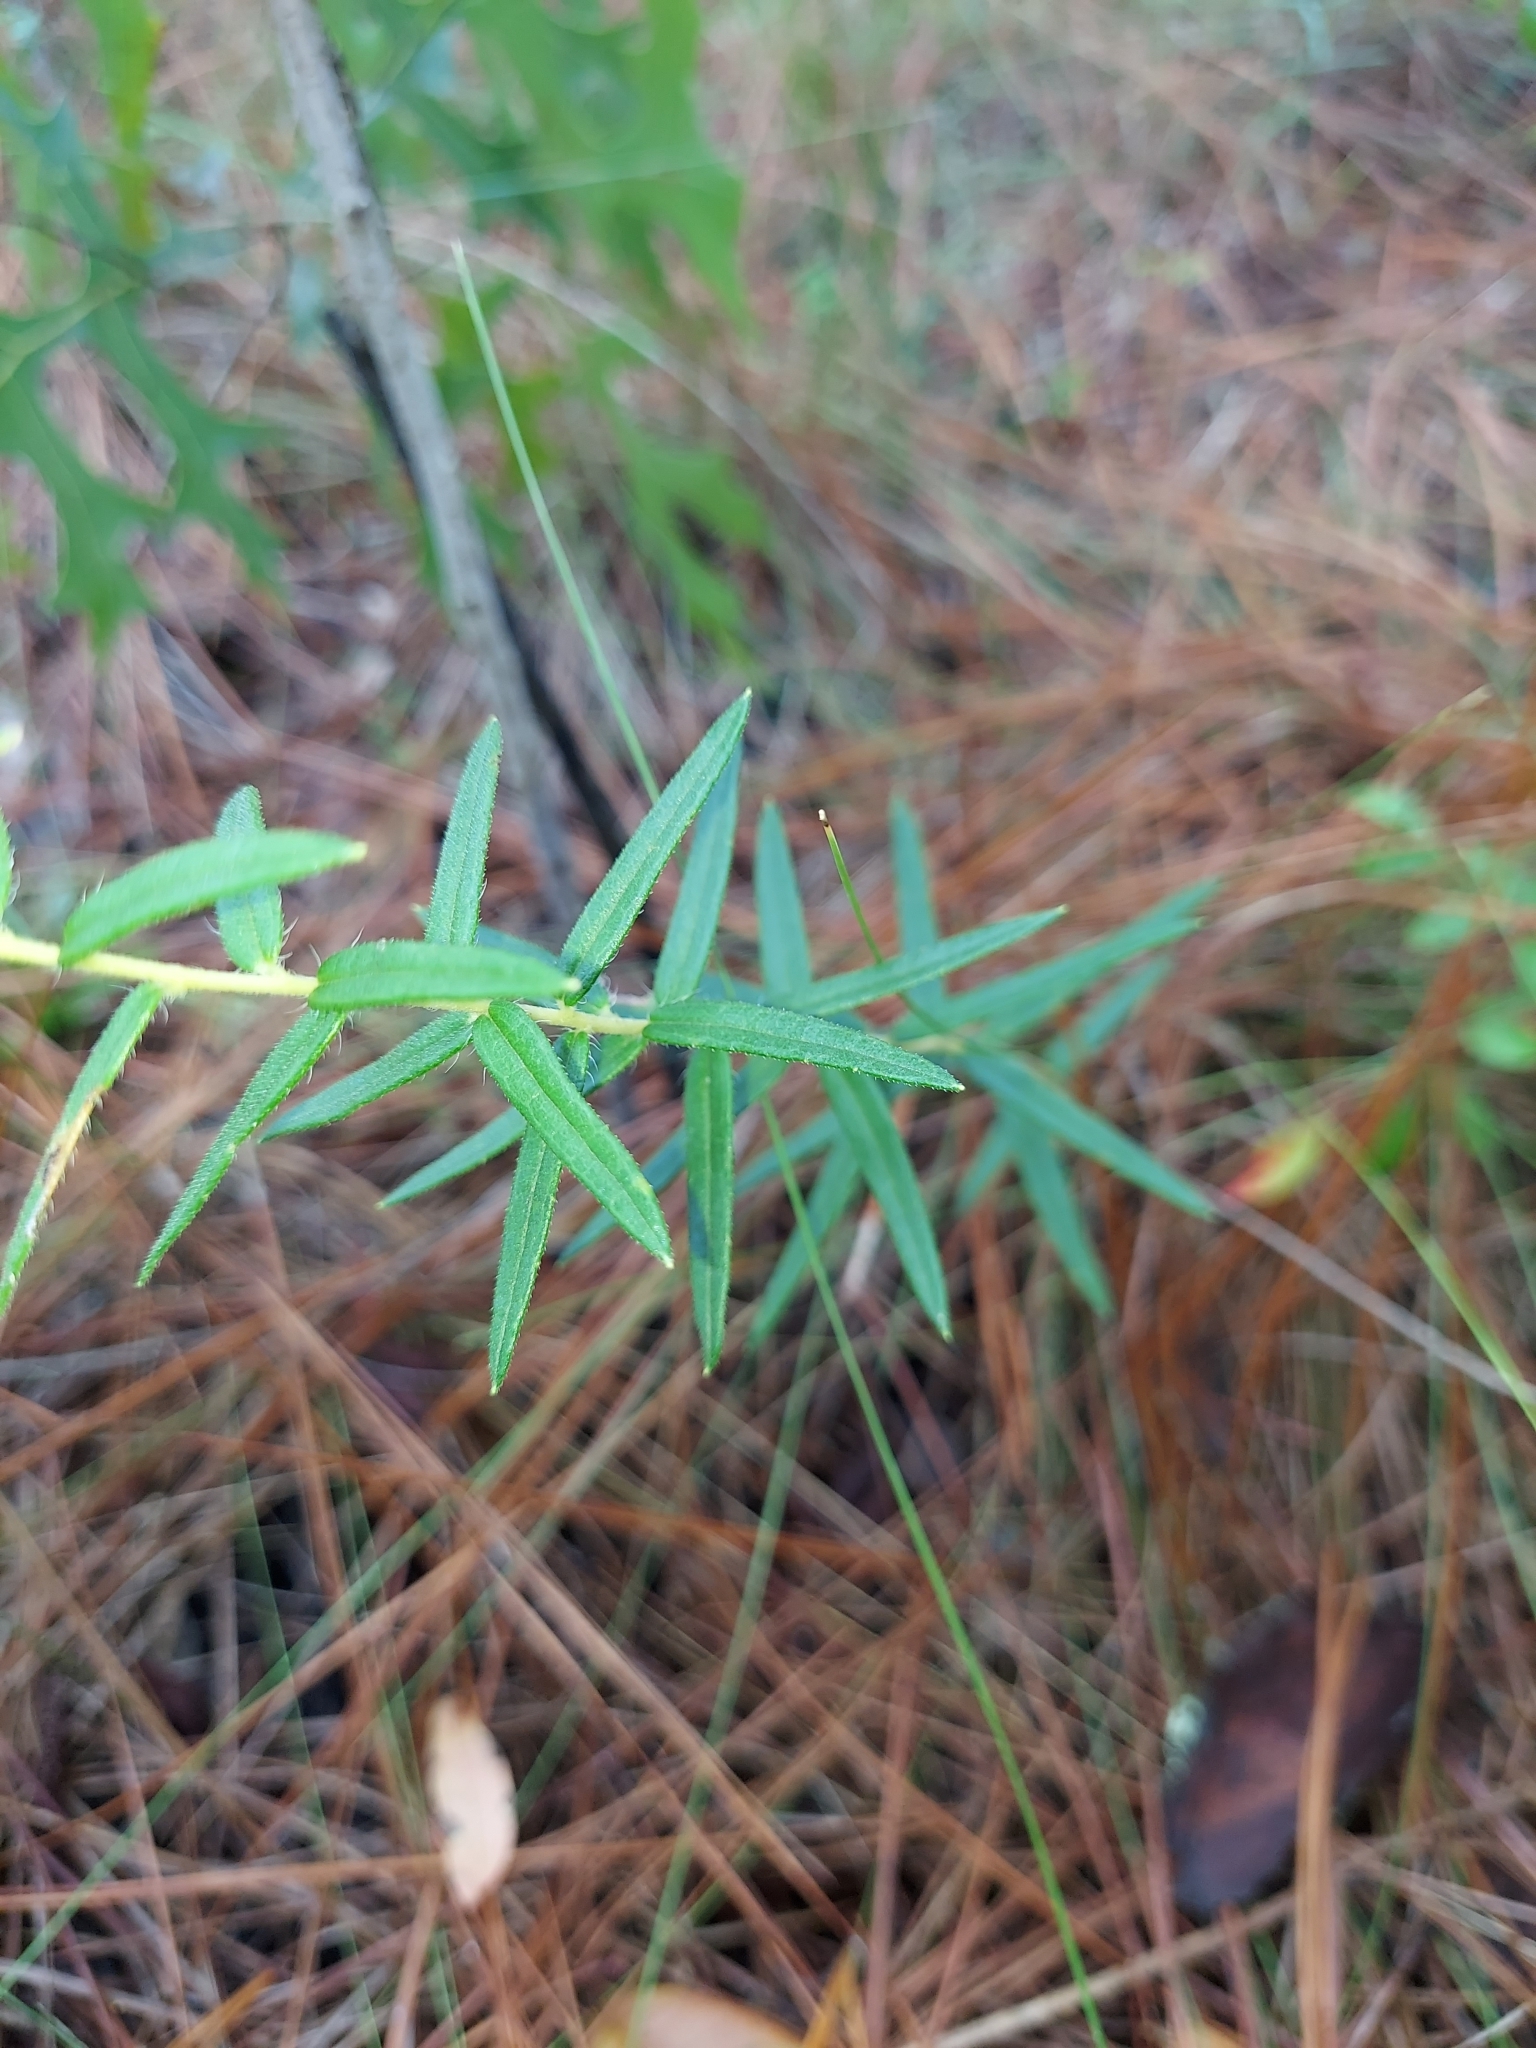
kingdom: Plantae
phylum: Tracheophyta
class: Magnoliopsida
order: Asterales
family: Asteraceae
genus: Phoebanthus
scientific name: Phoebanthus grandiflora
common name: Florida false sunflower
